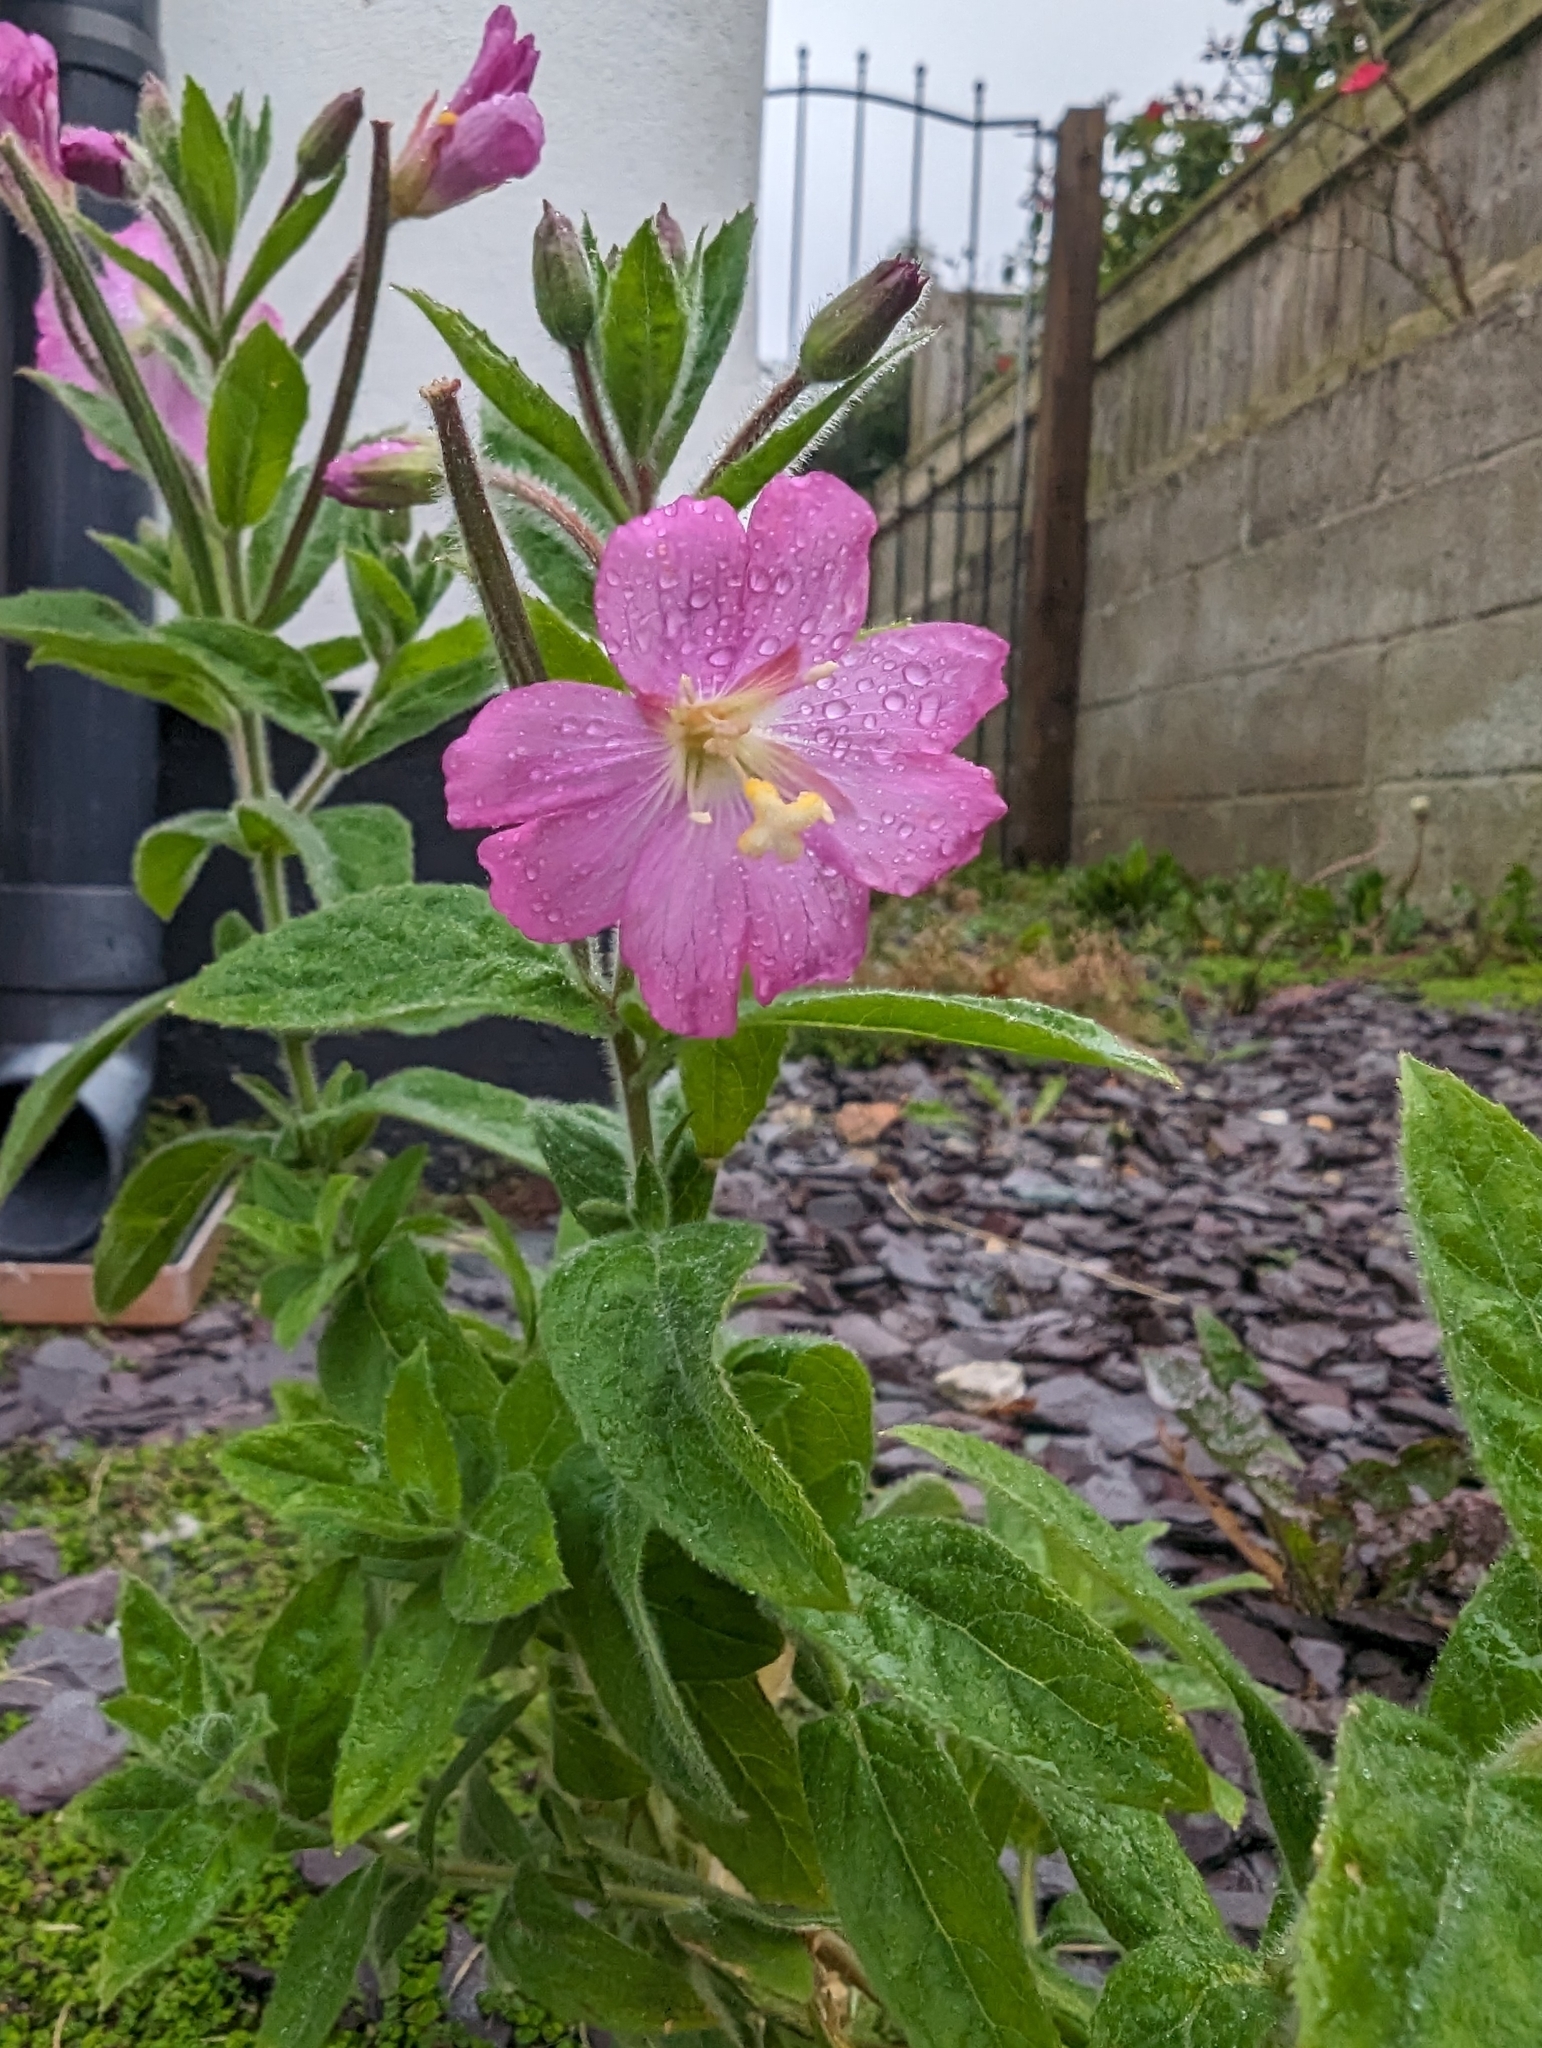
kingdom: Plantae
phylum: Tracheophyta
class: Magnoliopsida
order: Myrtales
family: Onagraceae
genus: Epilobium
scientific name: Epilobium hirsutum
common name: Great willowherb
